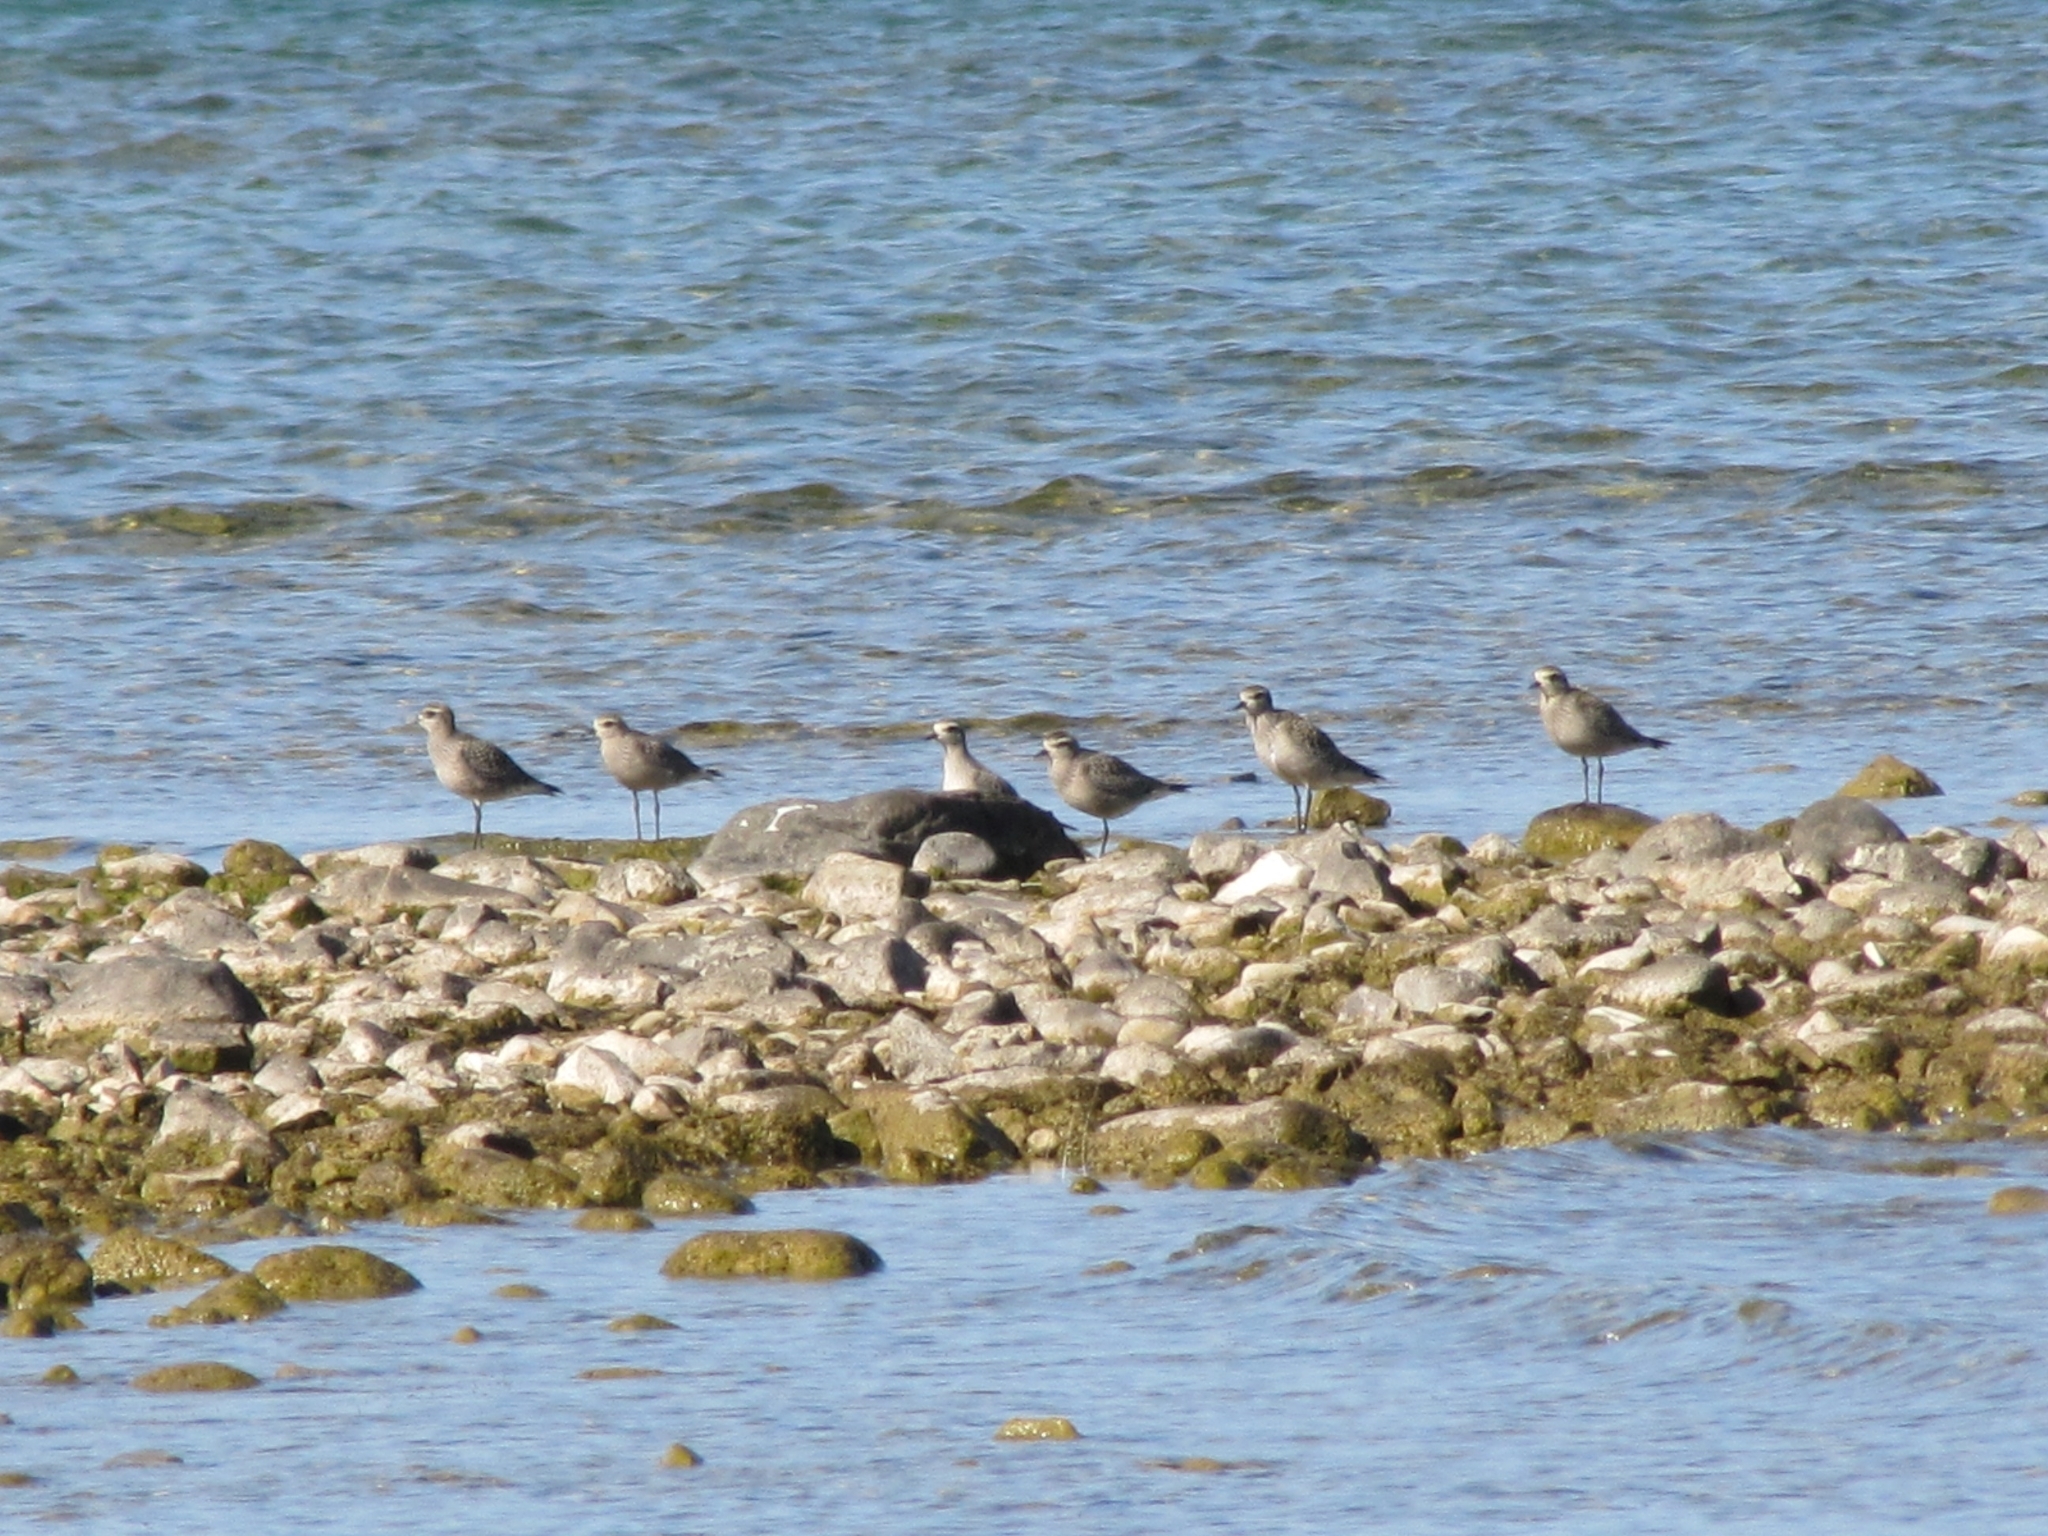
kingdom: Animalia
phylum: Chordata
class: Aves
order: Charadriiformes
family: Charadriidae
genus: Pluvialis
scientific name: Pluvialis dominica
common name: American golden plover
